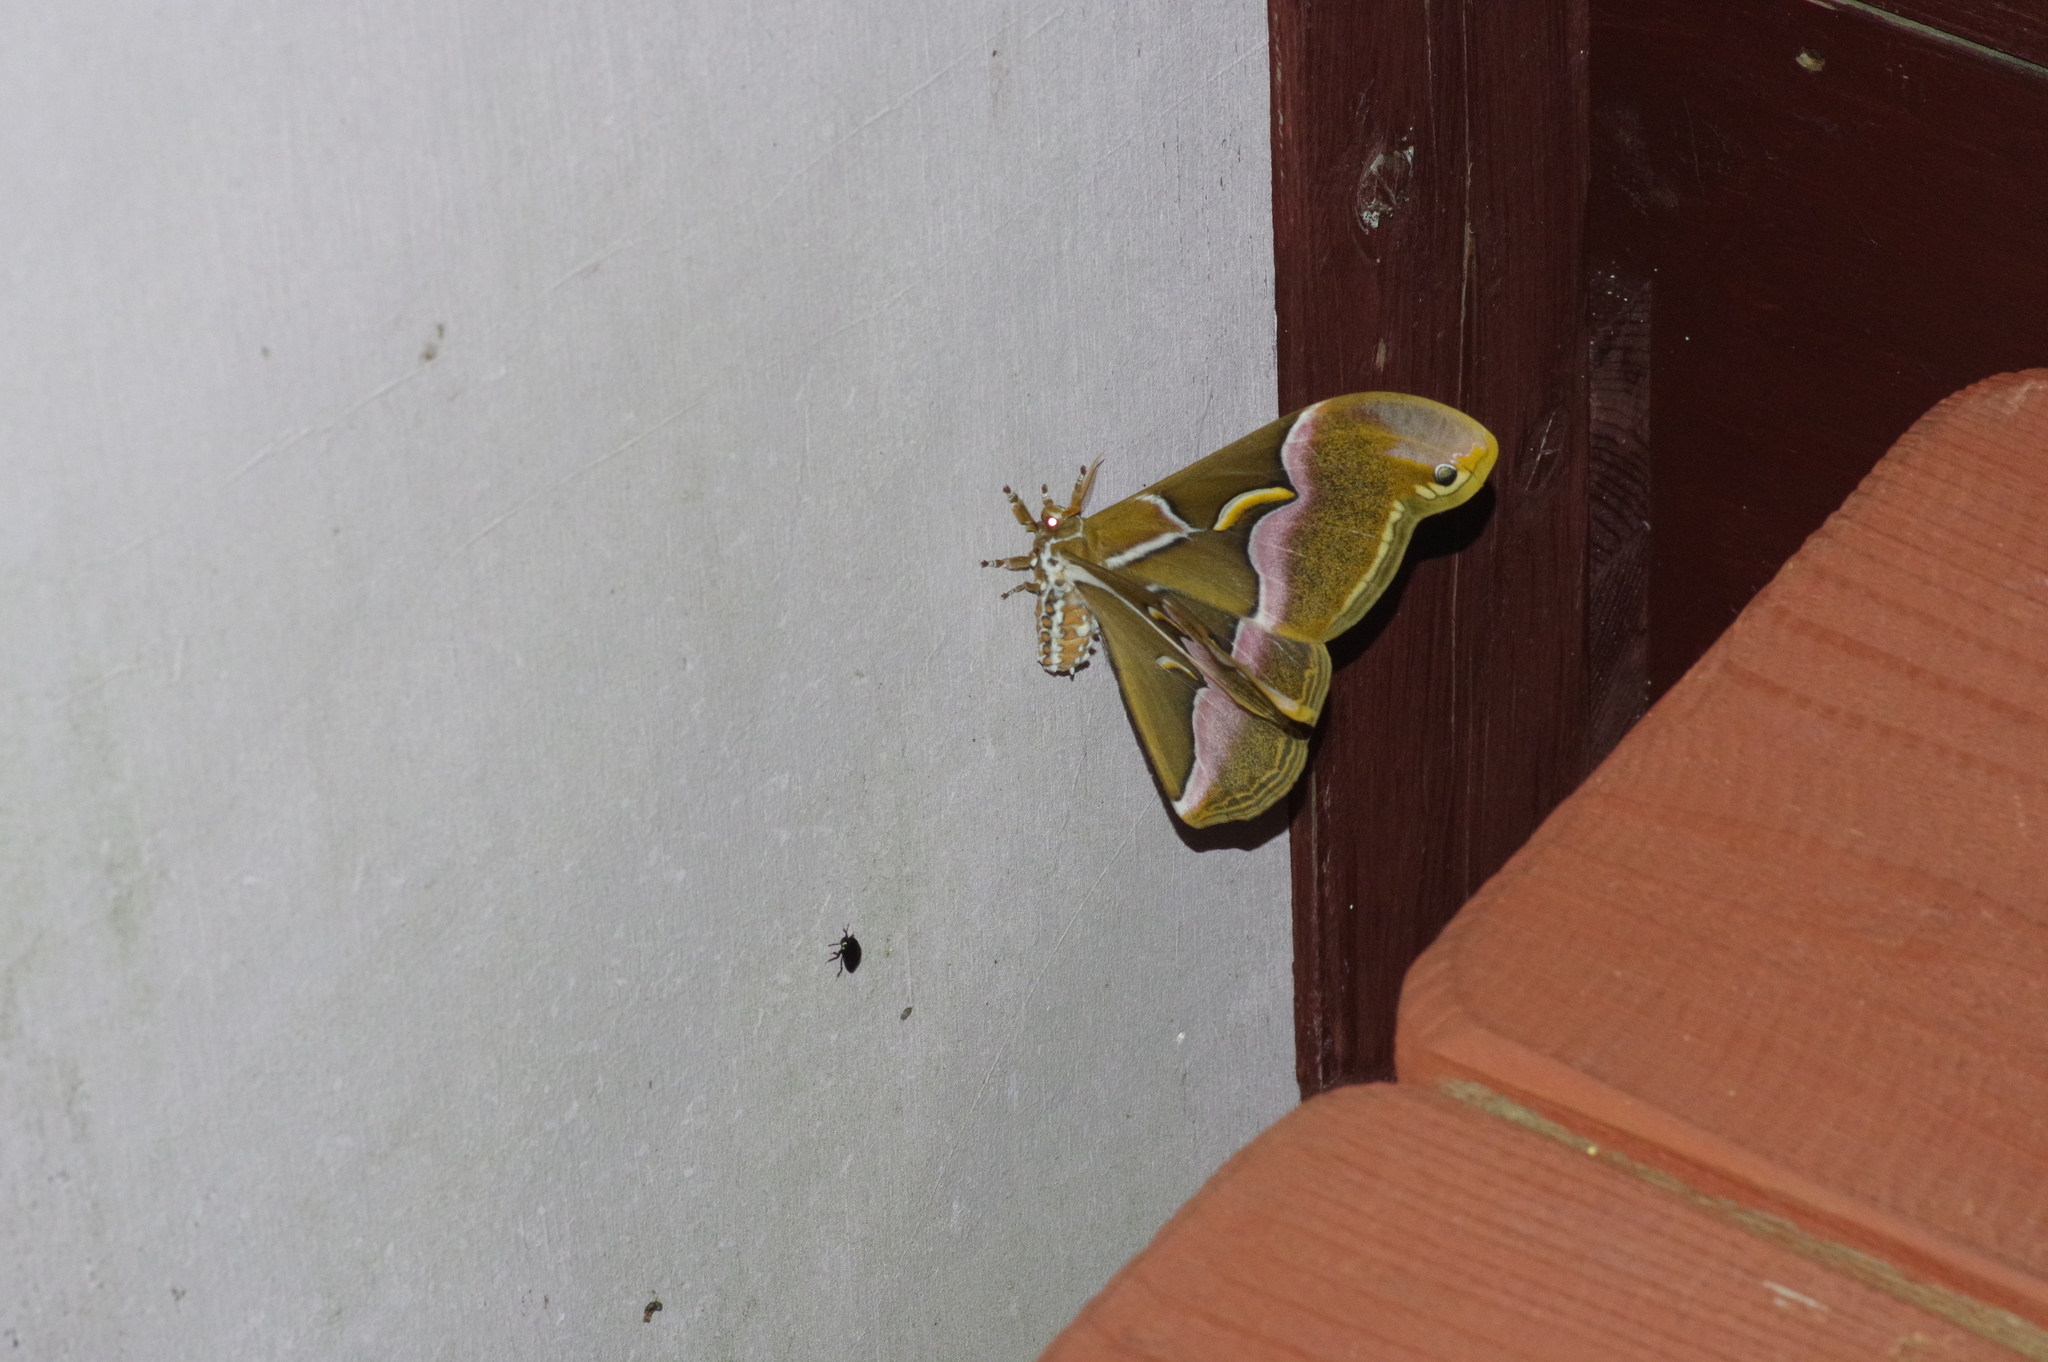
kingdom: Animalia
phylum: Arthropoda
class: Insecta
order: Lepidoptera
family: Saturniidae
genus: Samia
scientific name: Samia cynthia
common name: Ailanthus silkmoth
